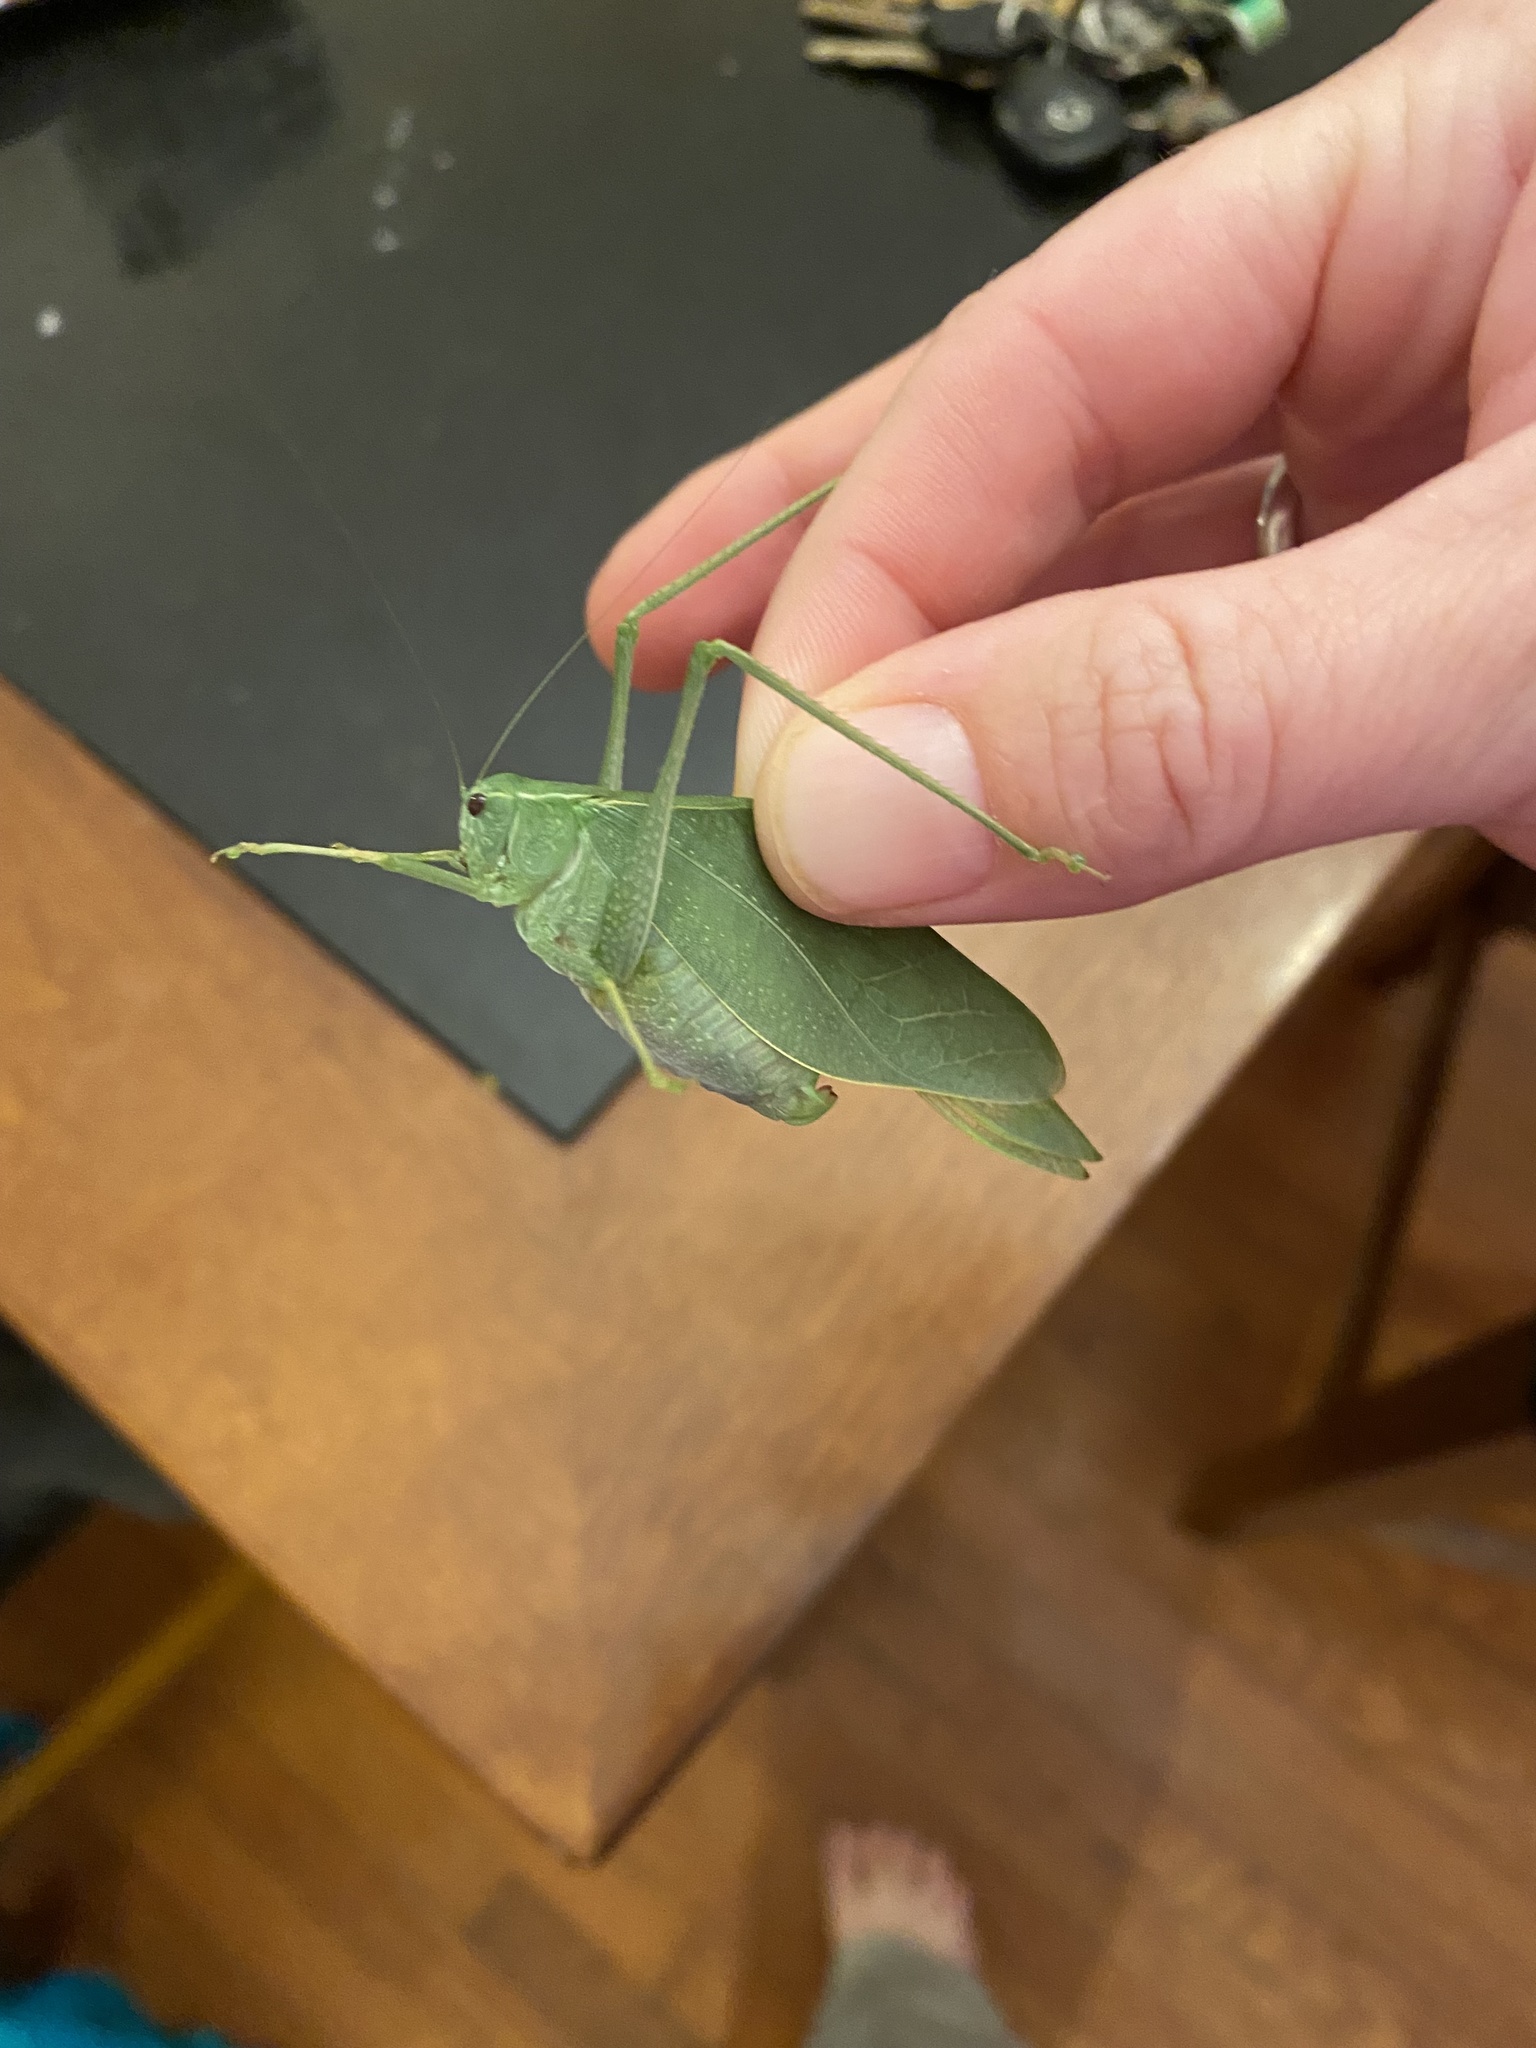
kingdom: Animalia
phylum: Arthropoda
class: Insecta
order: Orthoptera
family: Tettigoniidae
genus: Microcentrum
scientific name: Microcentrum rhombifolium
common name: Broad-winged katydid
